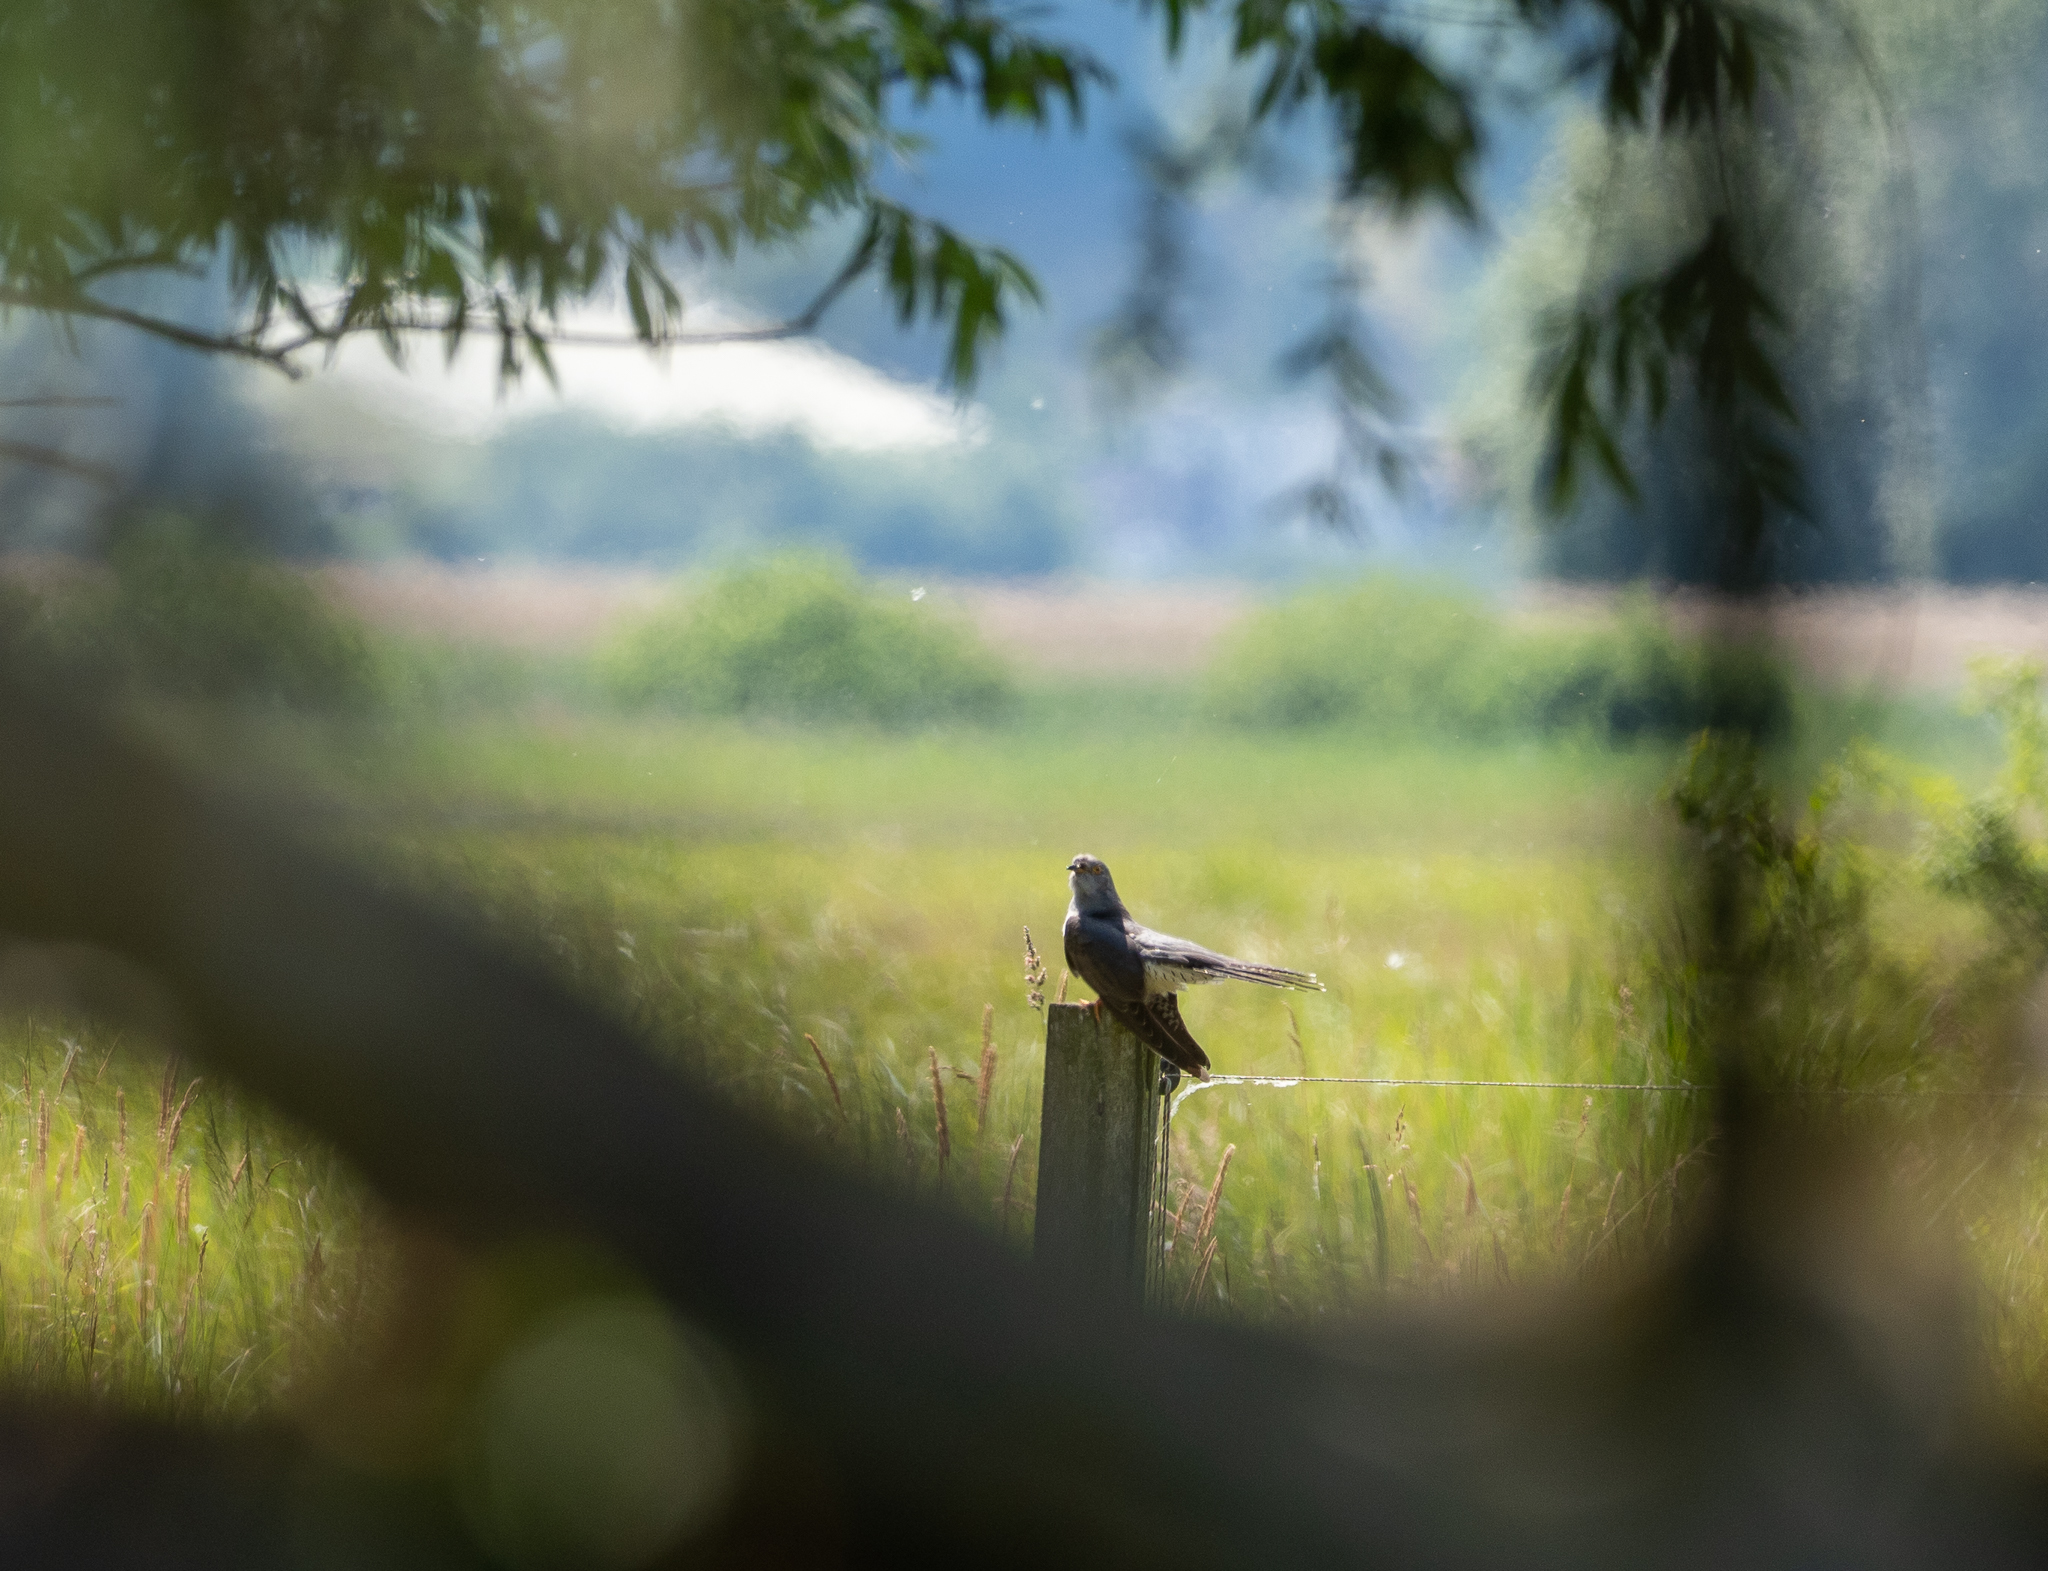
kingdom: Animalia
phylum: Chordata
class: Aves
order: Cuculiformes
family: Cuculidae
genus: Cuculus
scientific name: Cuculus canorus
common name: Common cuckoo
